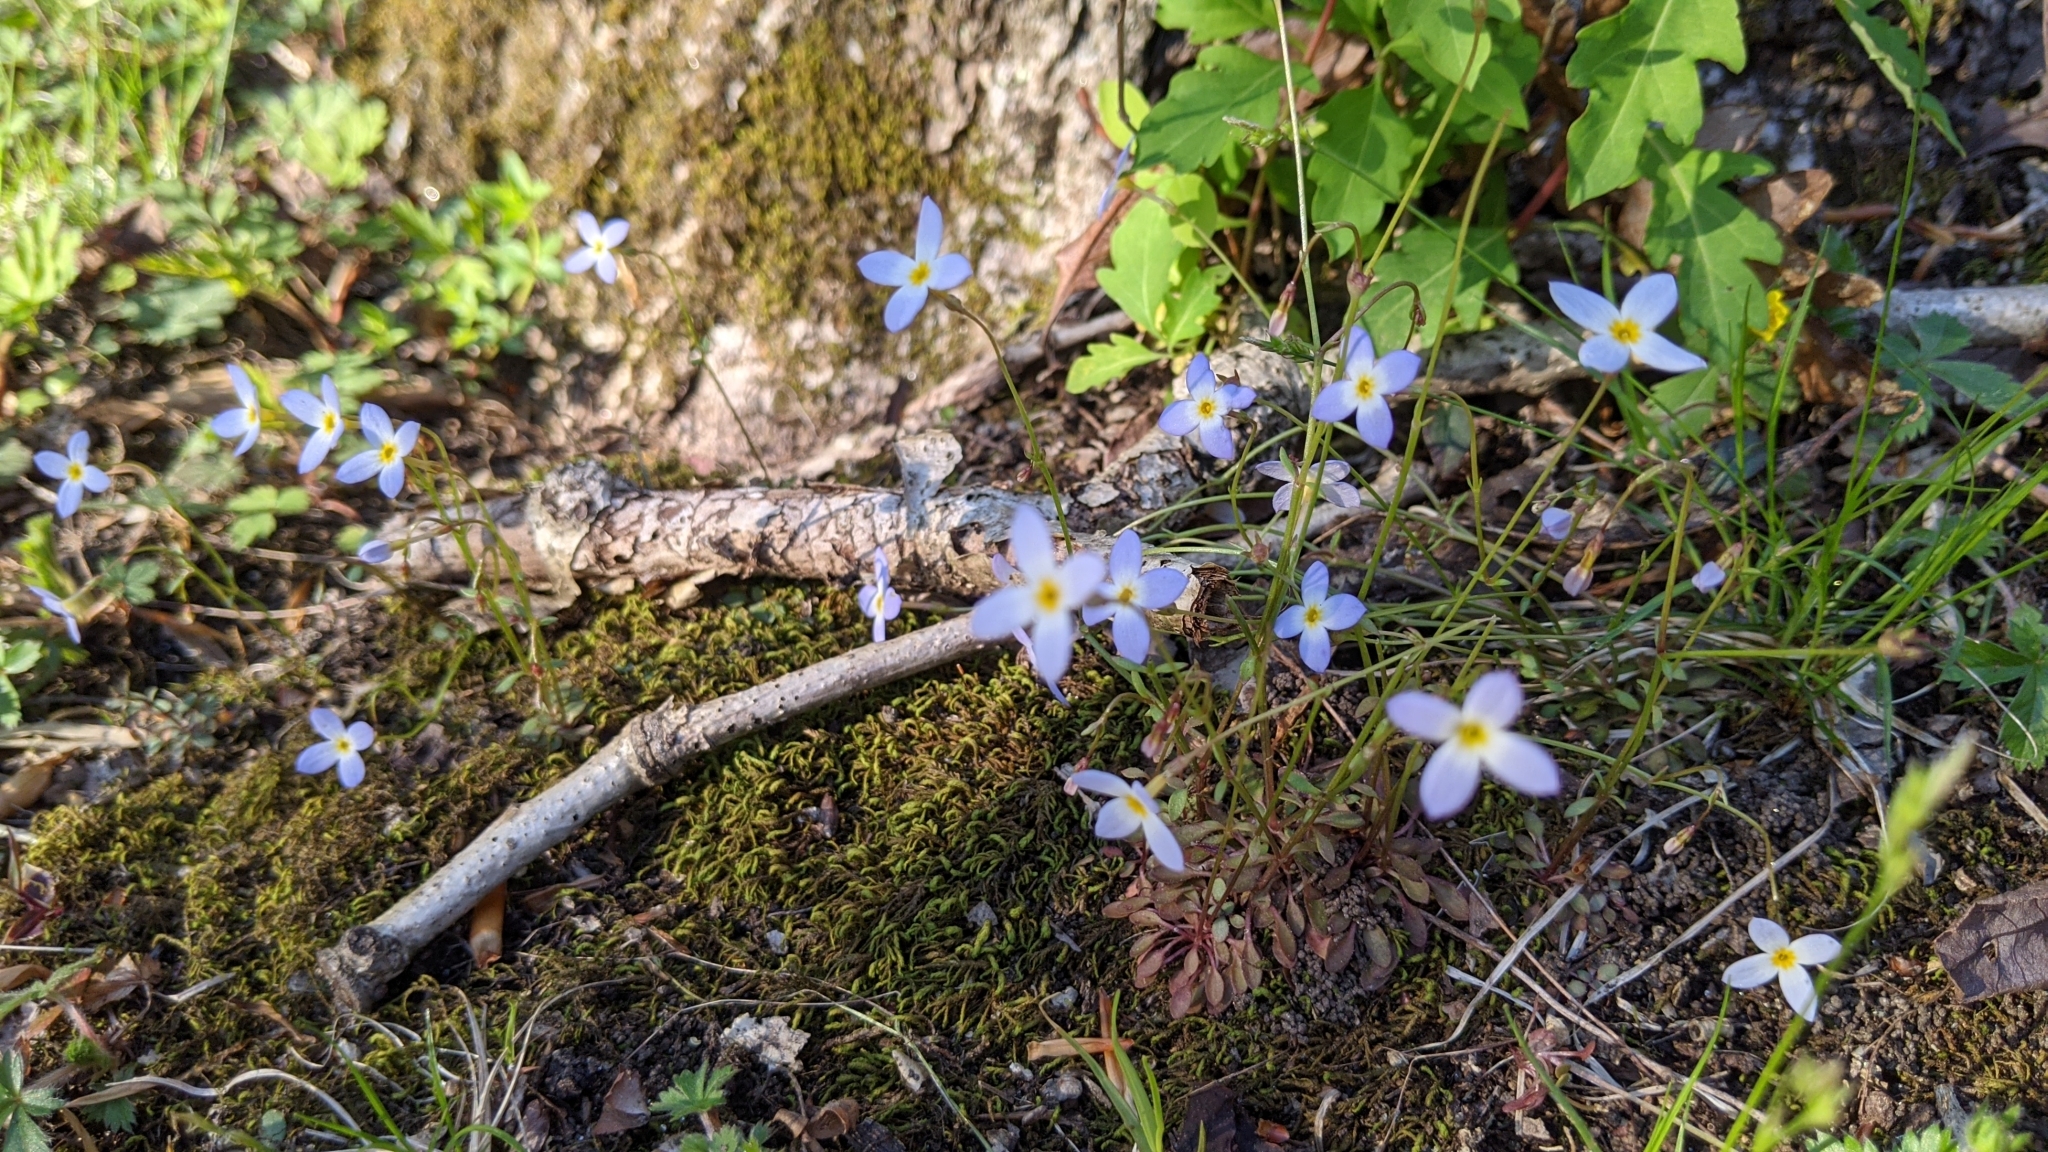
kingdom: Plantae
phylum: Tracheophyta
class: Magnoliopsida
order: Gentianales
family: Rubiaceae
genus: Houstonia
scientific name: Houstonia caerulea
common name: Bluets
